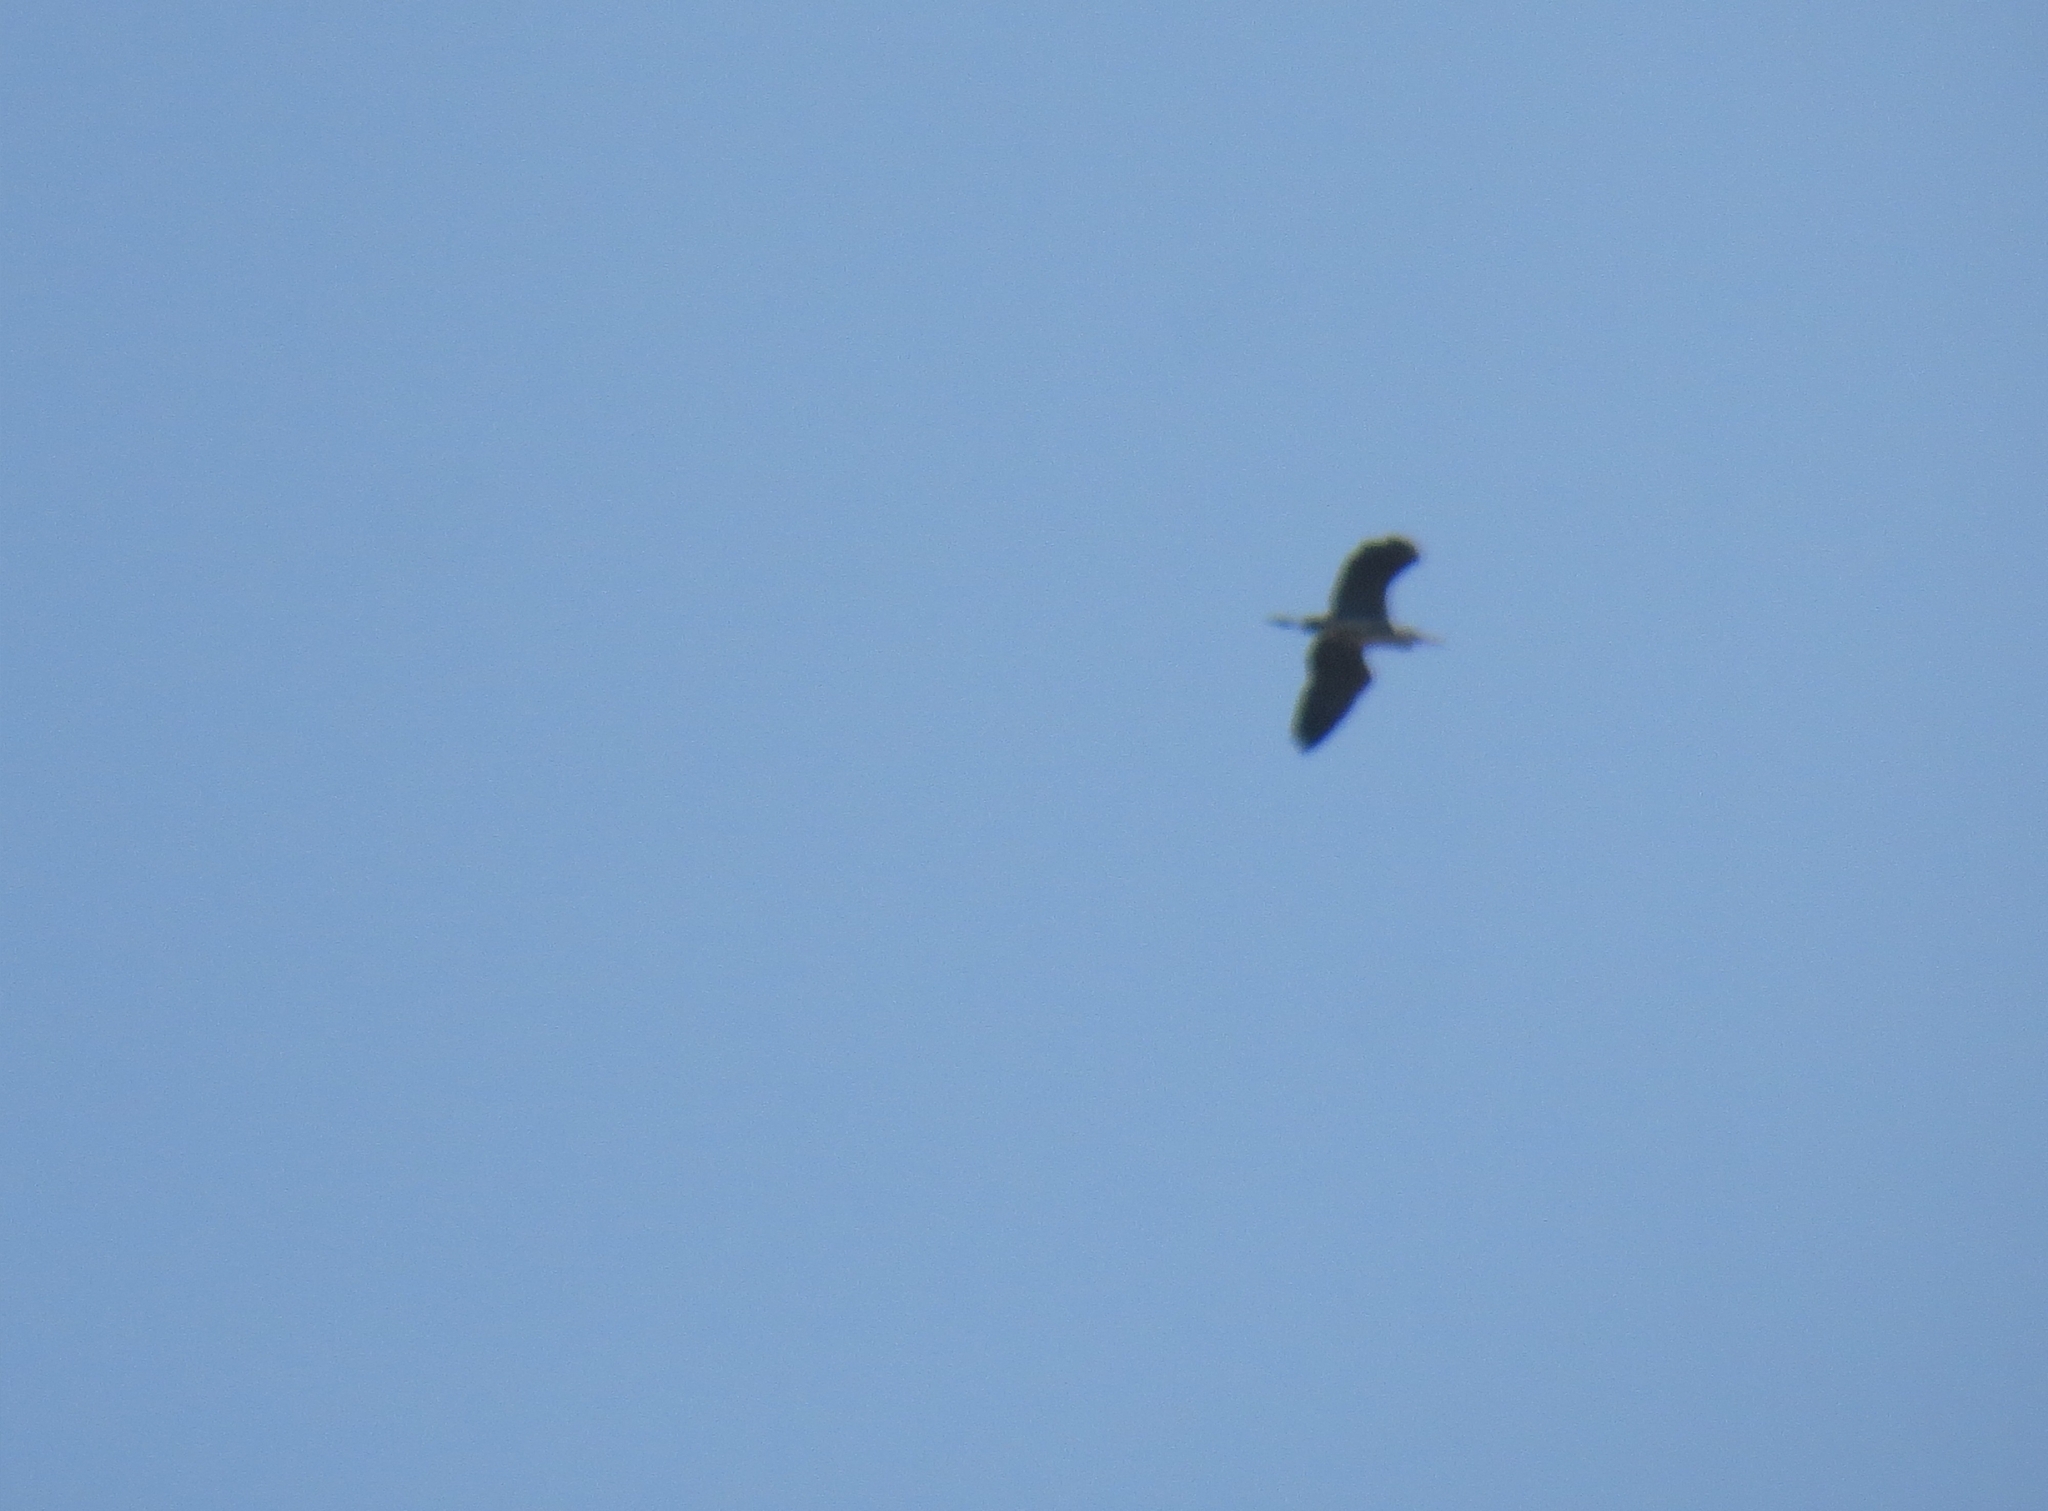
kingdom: Animalia
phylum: Chordata
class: Aves
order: Pelecaniformes
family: Ardeidae
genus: Ardea
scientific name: Ardea cinerea
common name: Grey heron
